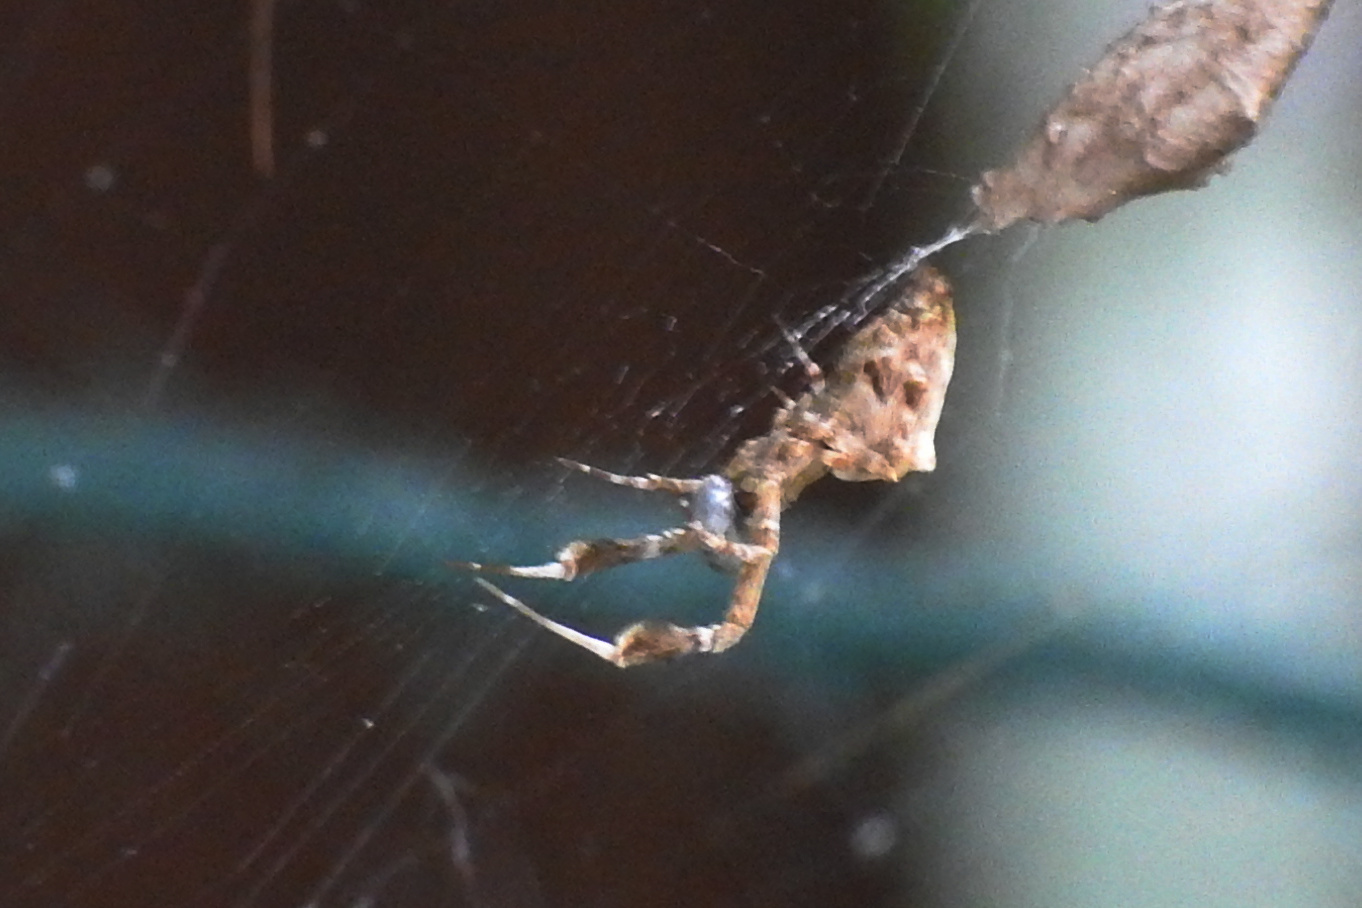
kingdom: Animalia
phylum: Arthropoda
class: Arachnida
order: Araneae
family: Uloboridae
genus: Uloborus
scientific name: Uloborus glomosus
